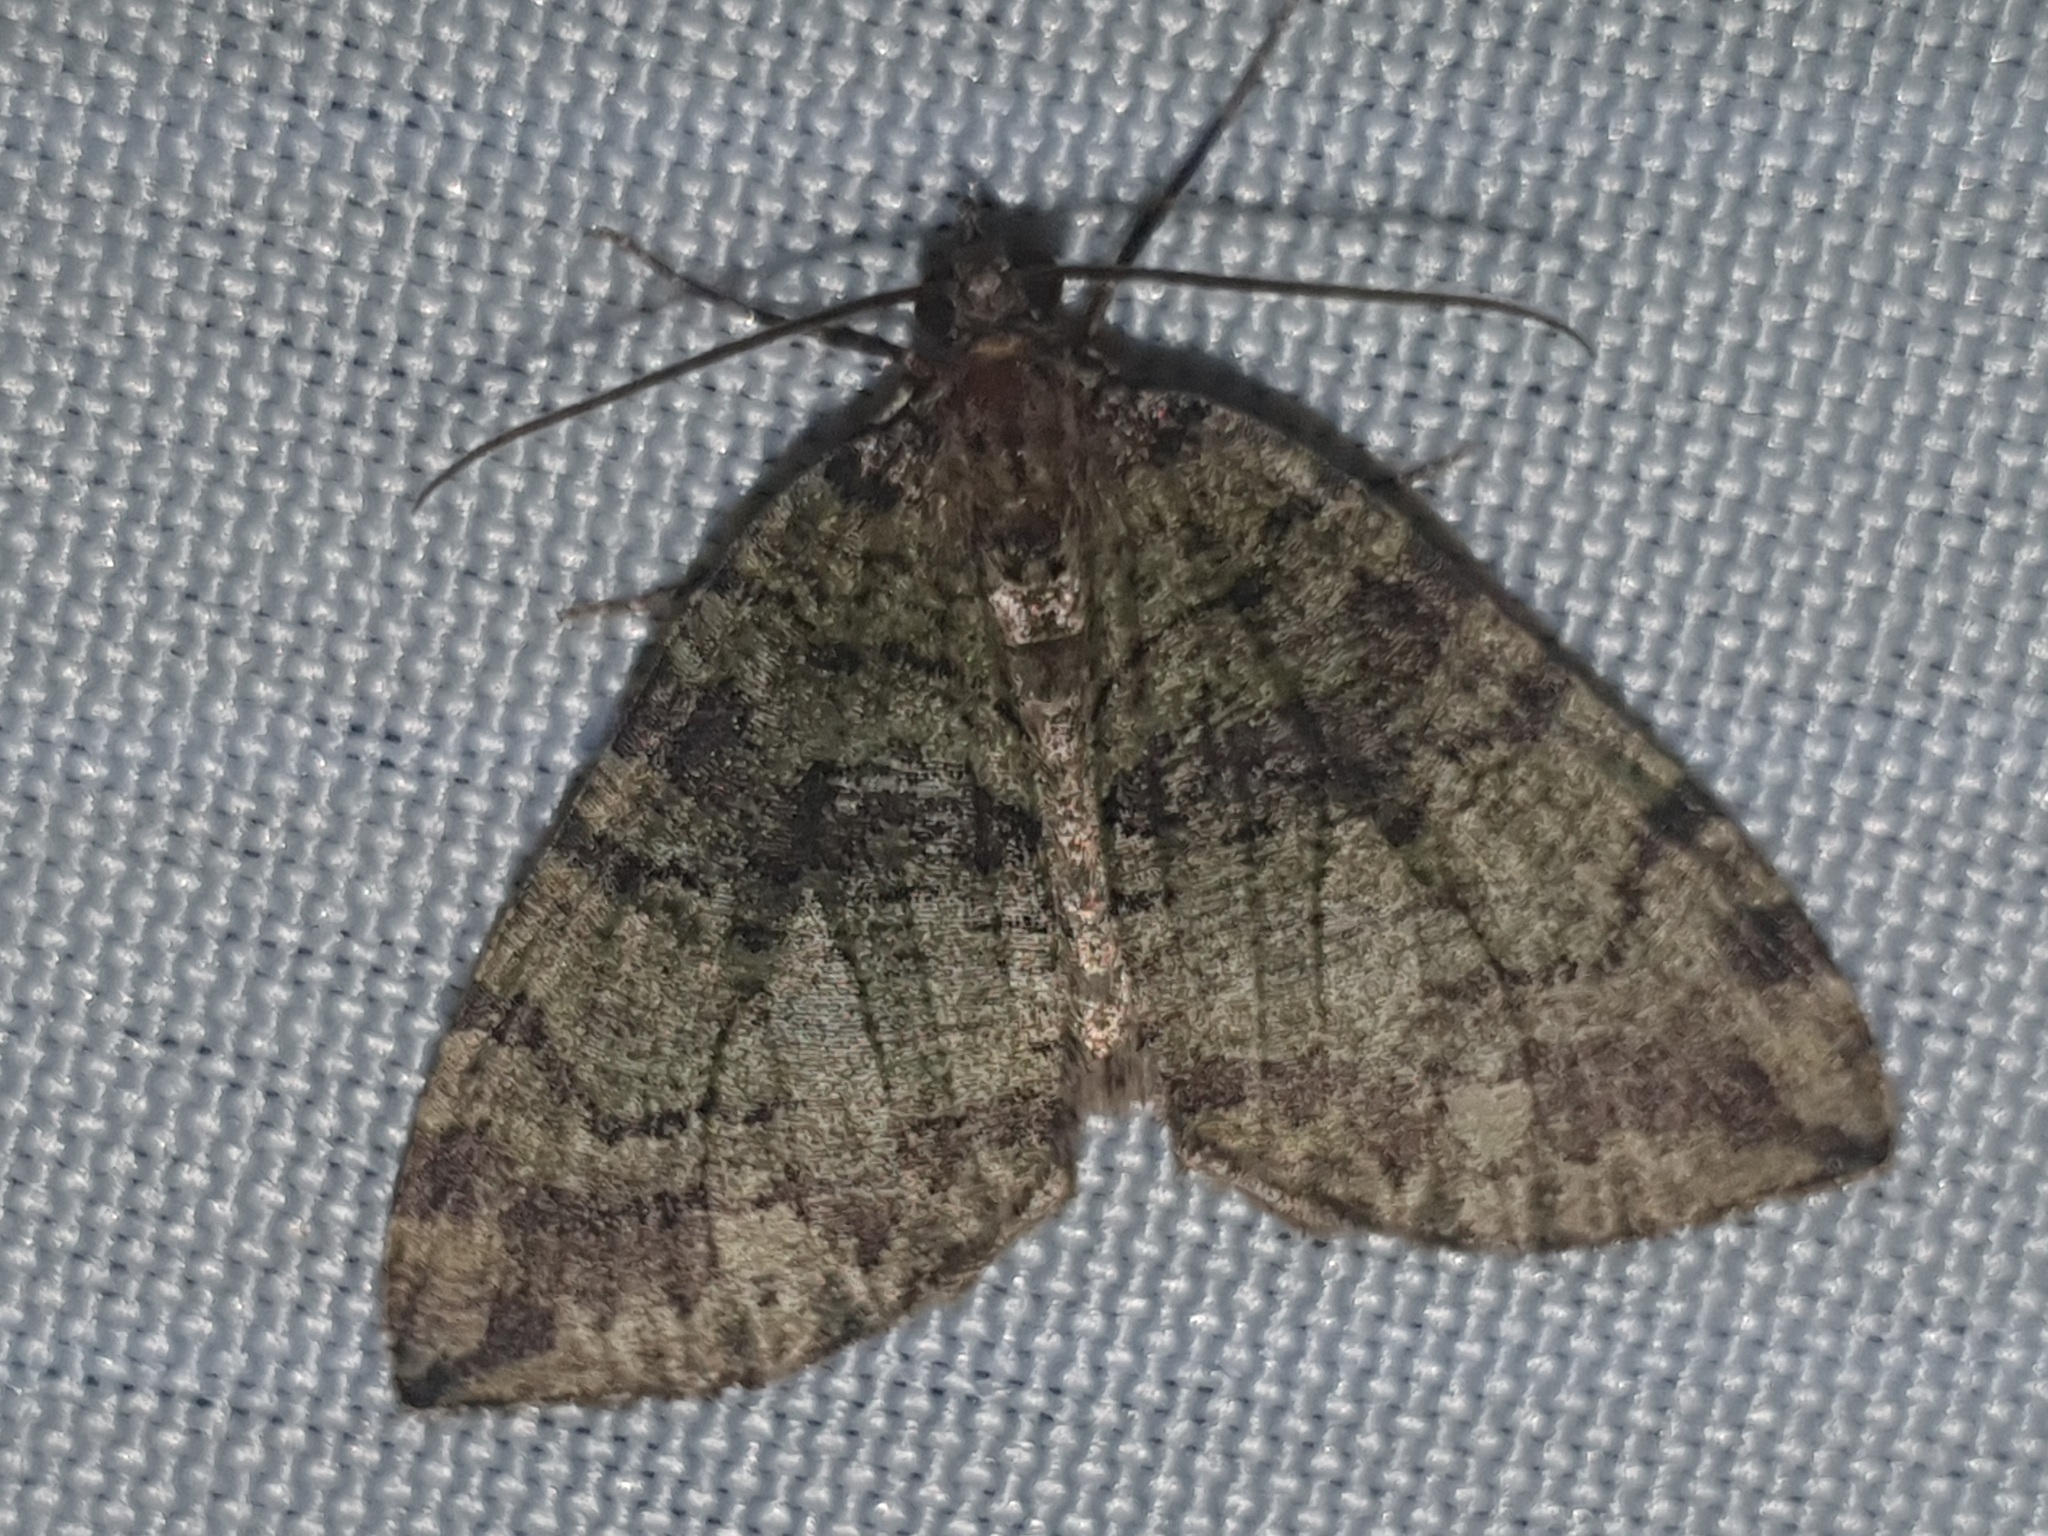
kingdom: Animalia
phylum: Arthropoda
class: Insecta
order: Lepidoptera
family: Geometridae
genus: Hydriomena
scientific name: Hydriomena furcata
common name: July highflyer
